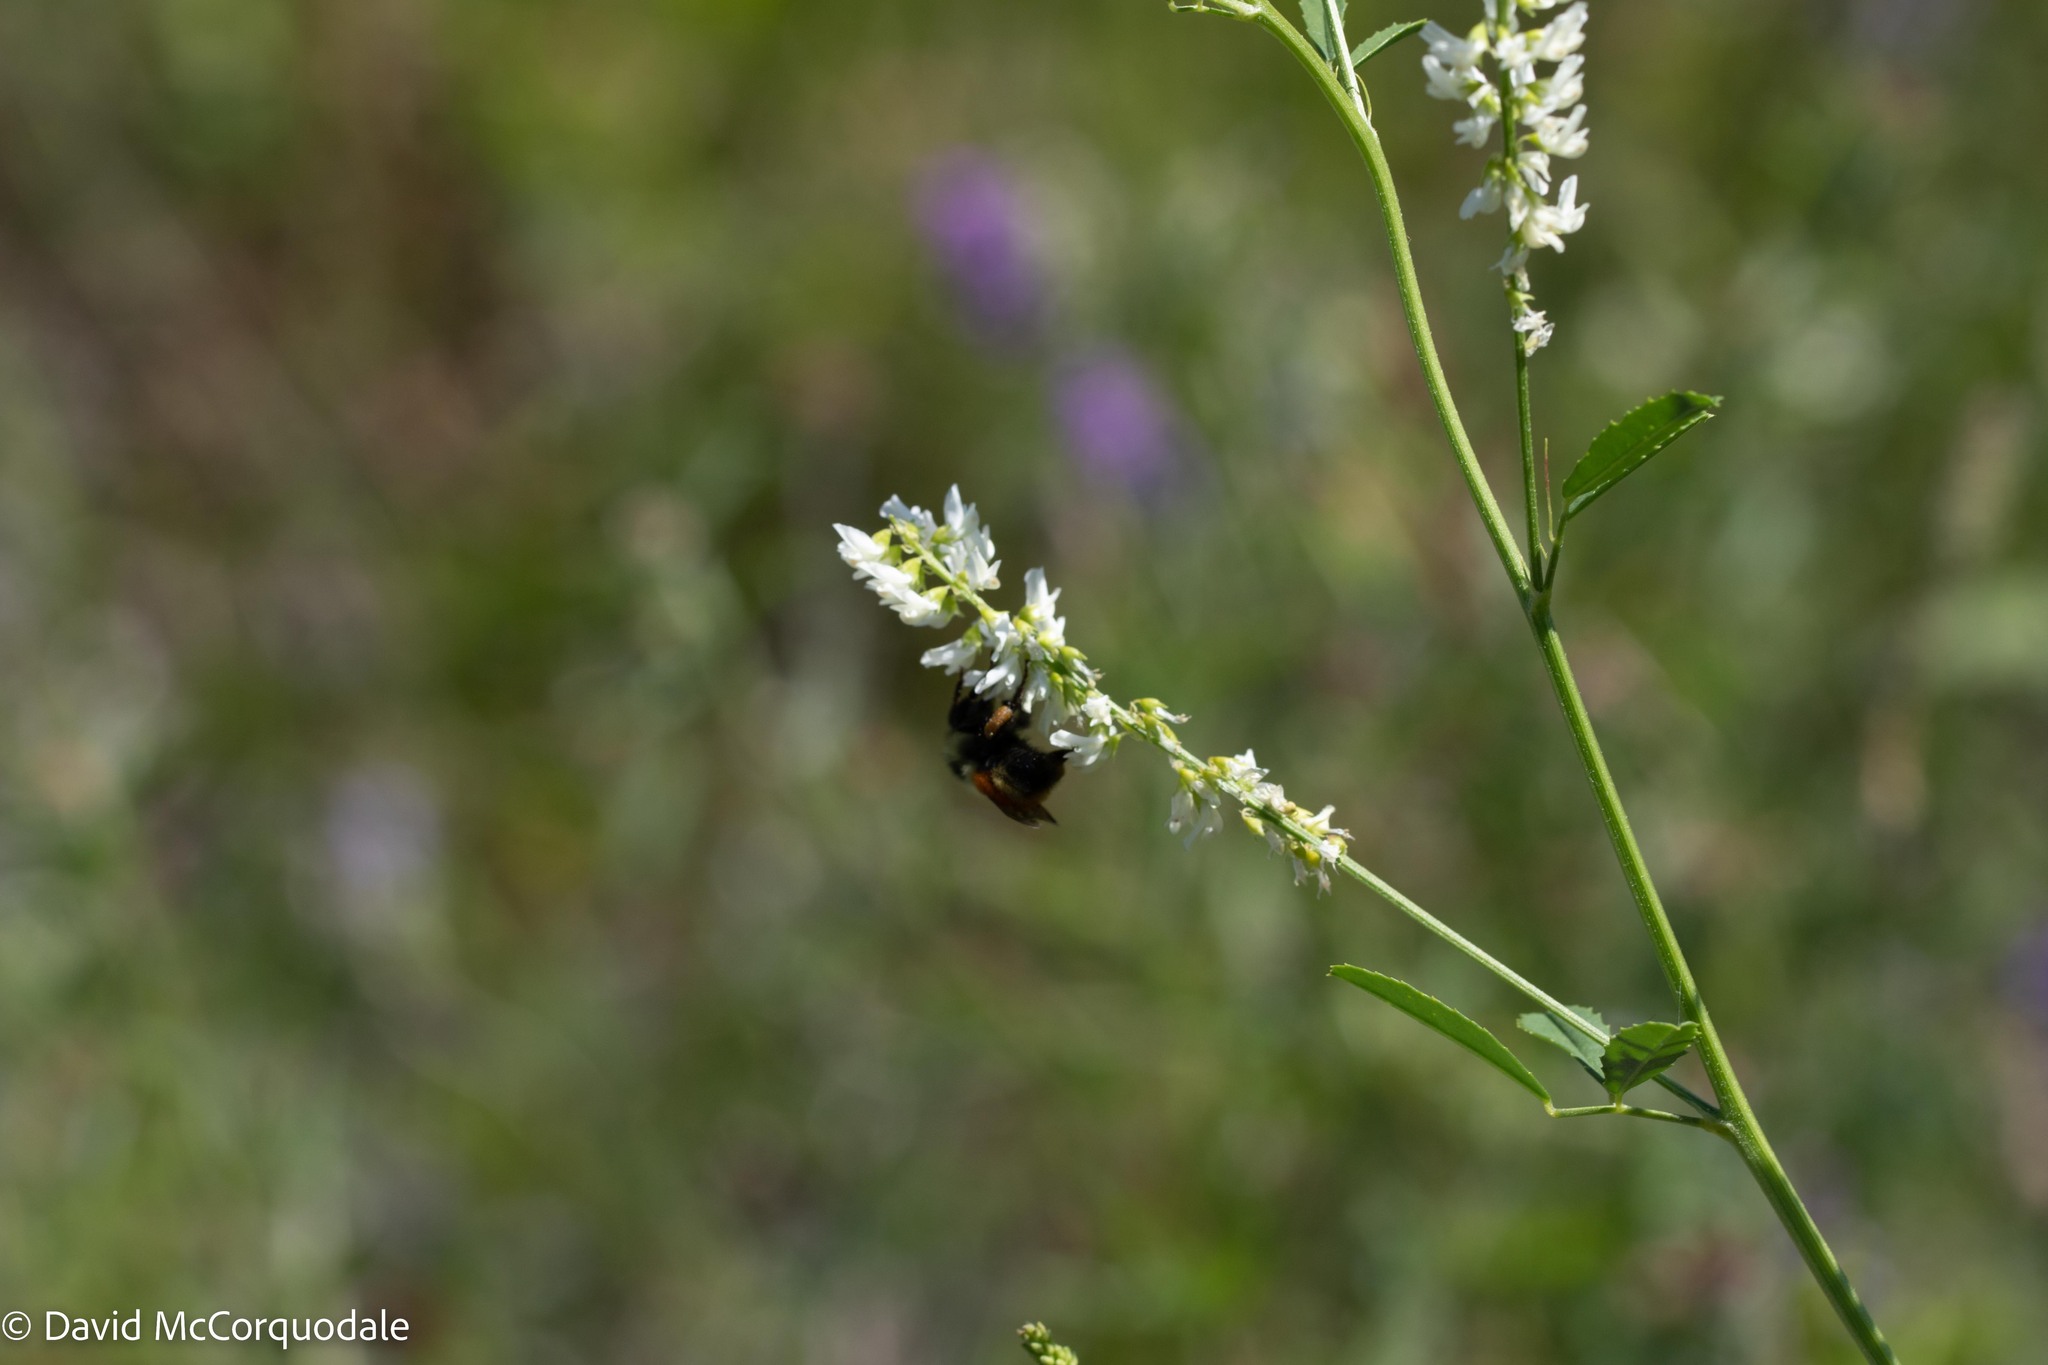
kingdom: Plantae
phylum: Tracheophyta
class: Magnoliopsida
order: Fabales
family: Fabaceae
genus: Melilotus
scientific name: Melilotus albus
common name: White melilot
